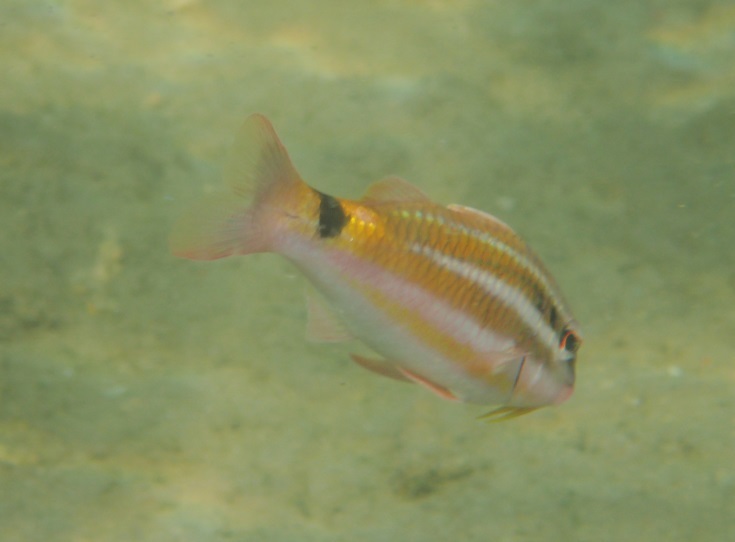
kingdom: Animalia
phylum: Chordata
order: Perciformes
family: Mullidae
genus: Parupeneus
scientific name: Parupeneus spilurus
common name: Blackspot goatfish
